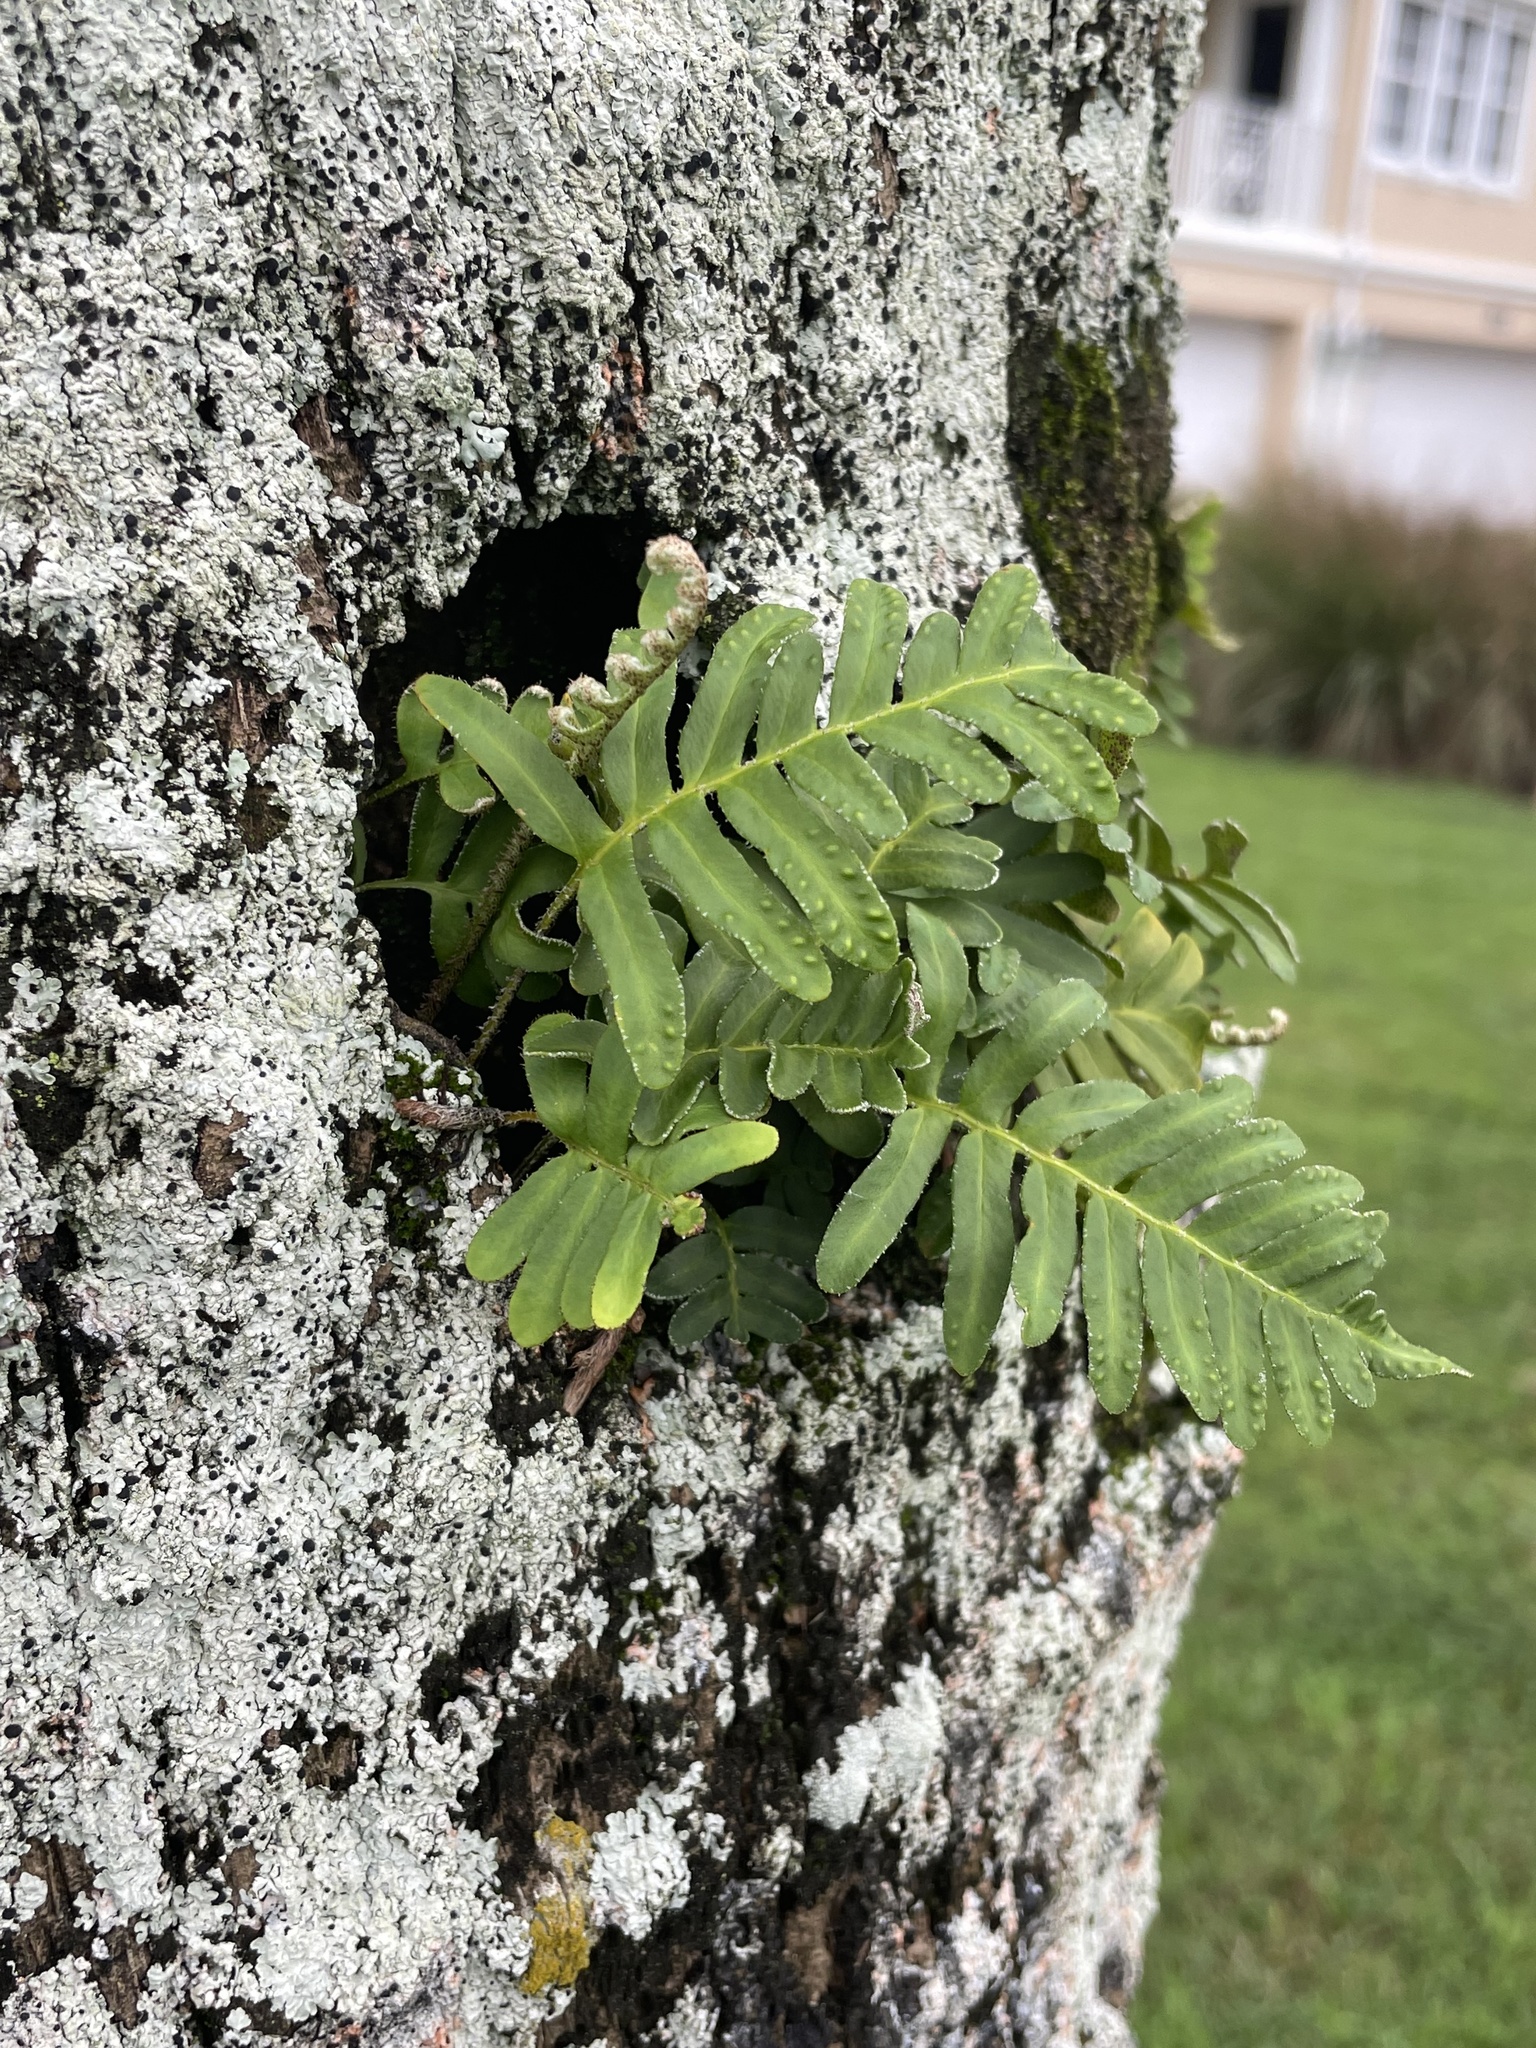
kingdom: Plantae
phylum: Tracheophyta
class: Polypodiopsida
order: Polypodiales
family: Polypodiaceae
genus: Pleopeltis
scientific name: Pleopeltis michauxiana
